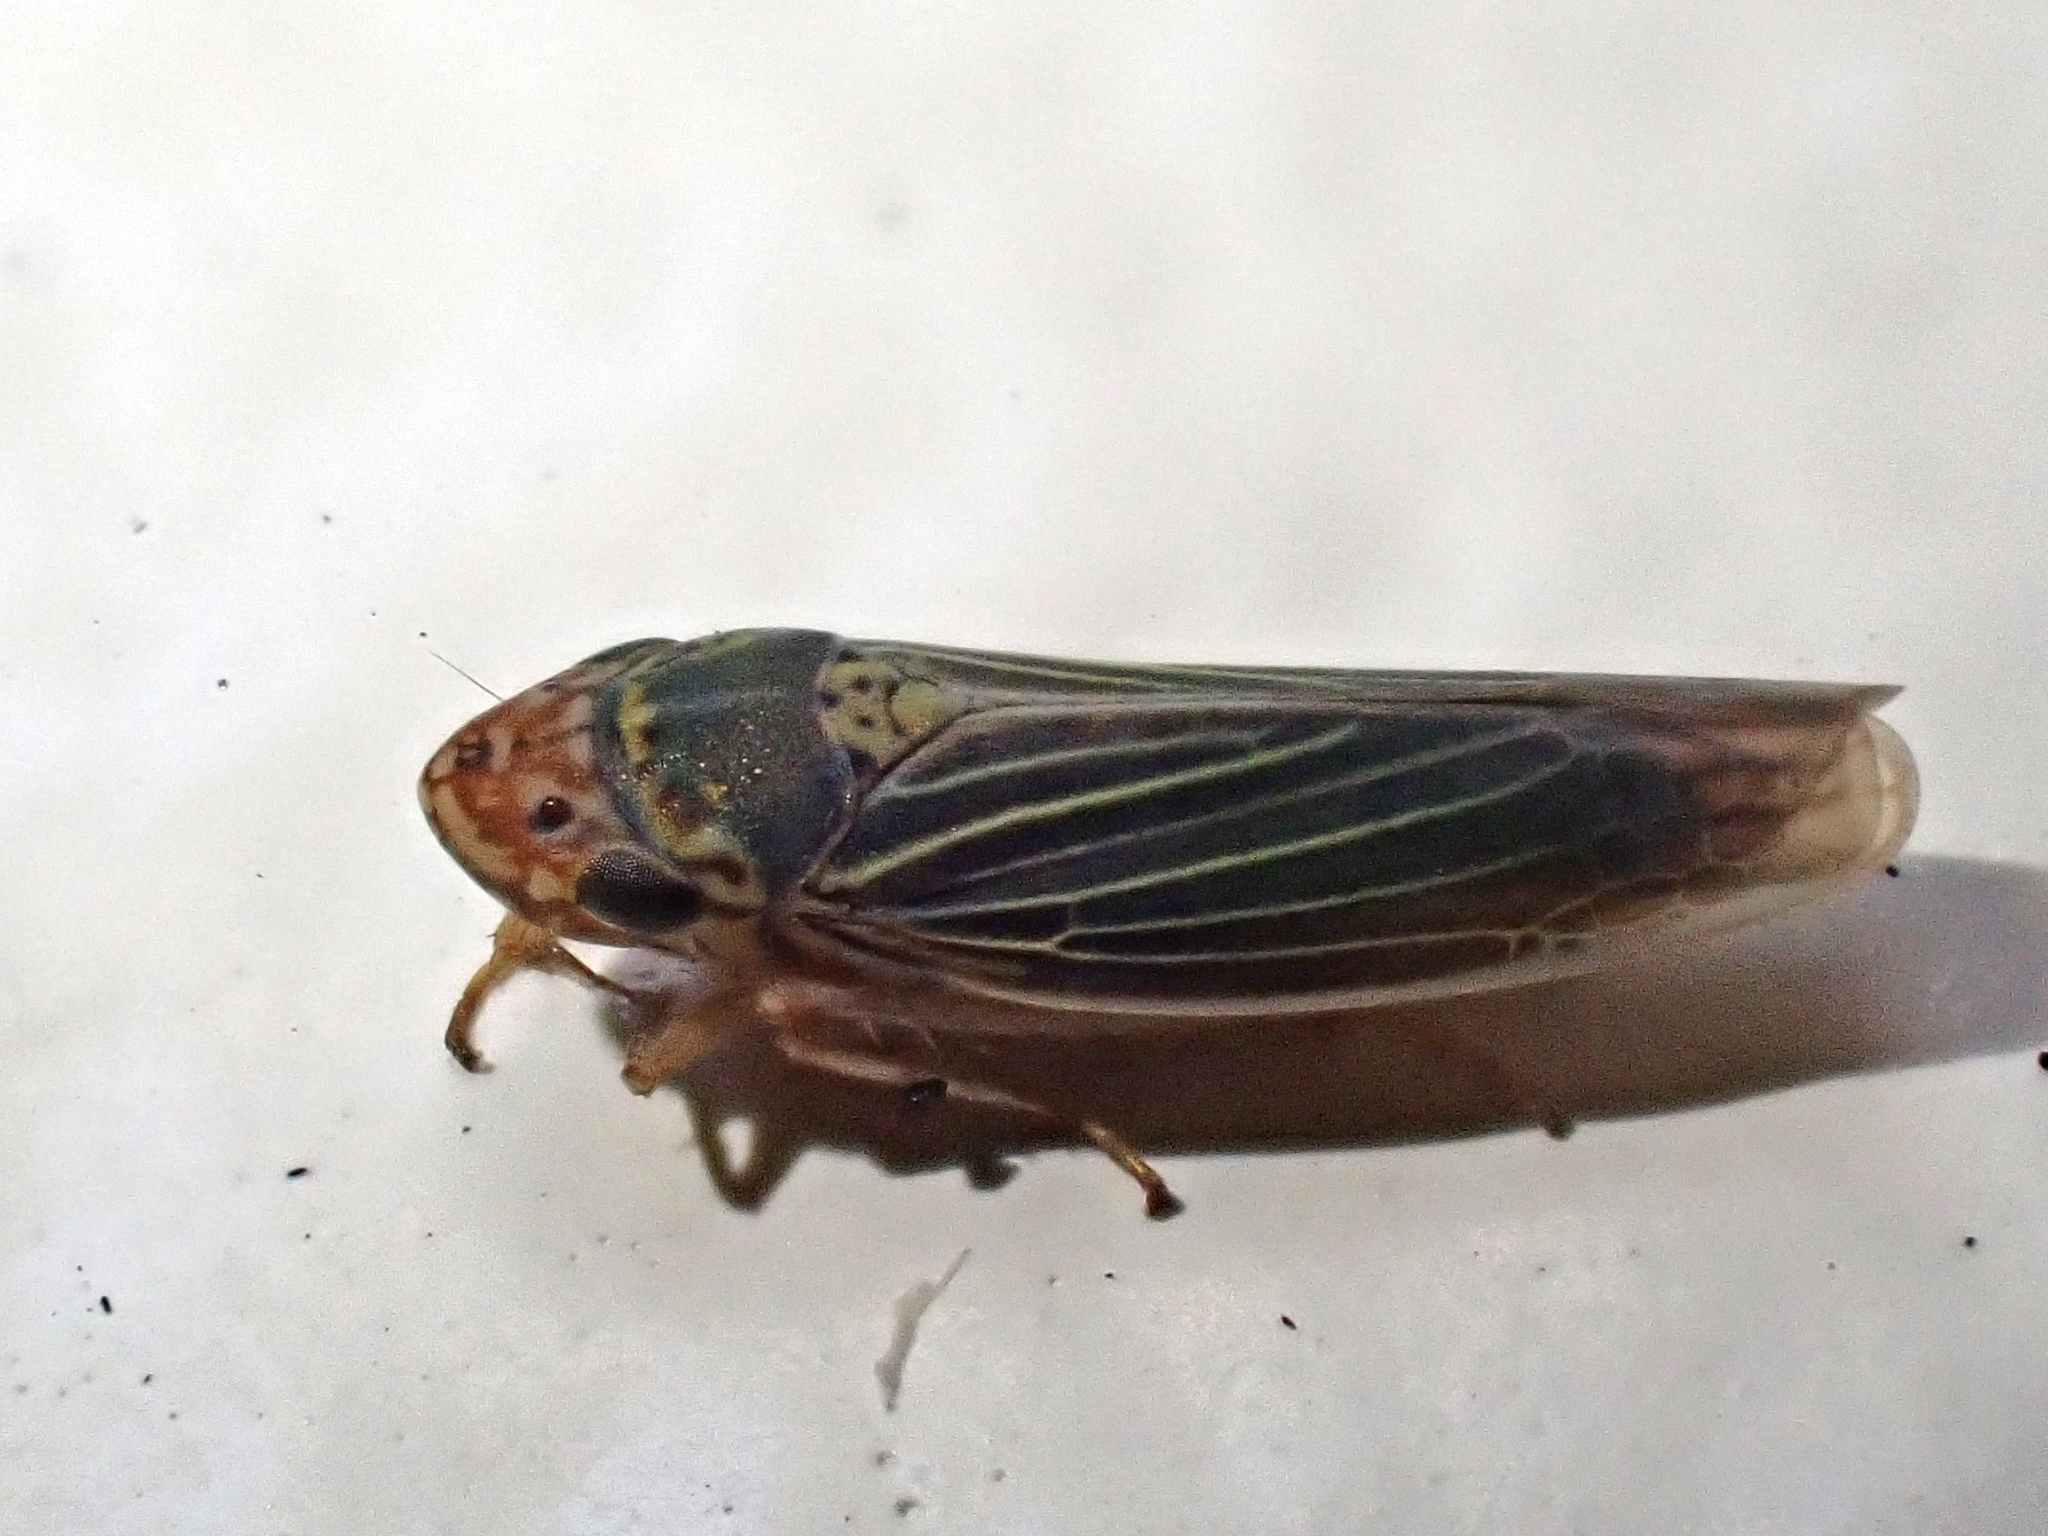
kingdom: Animalia
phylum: Arthropoda
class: Insecta
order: Hemiptera
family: Cicadellidae
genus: Xyphon
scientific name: Xyphon reticulatum
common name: Planthopper
